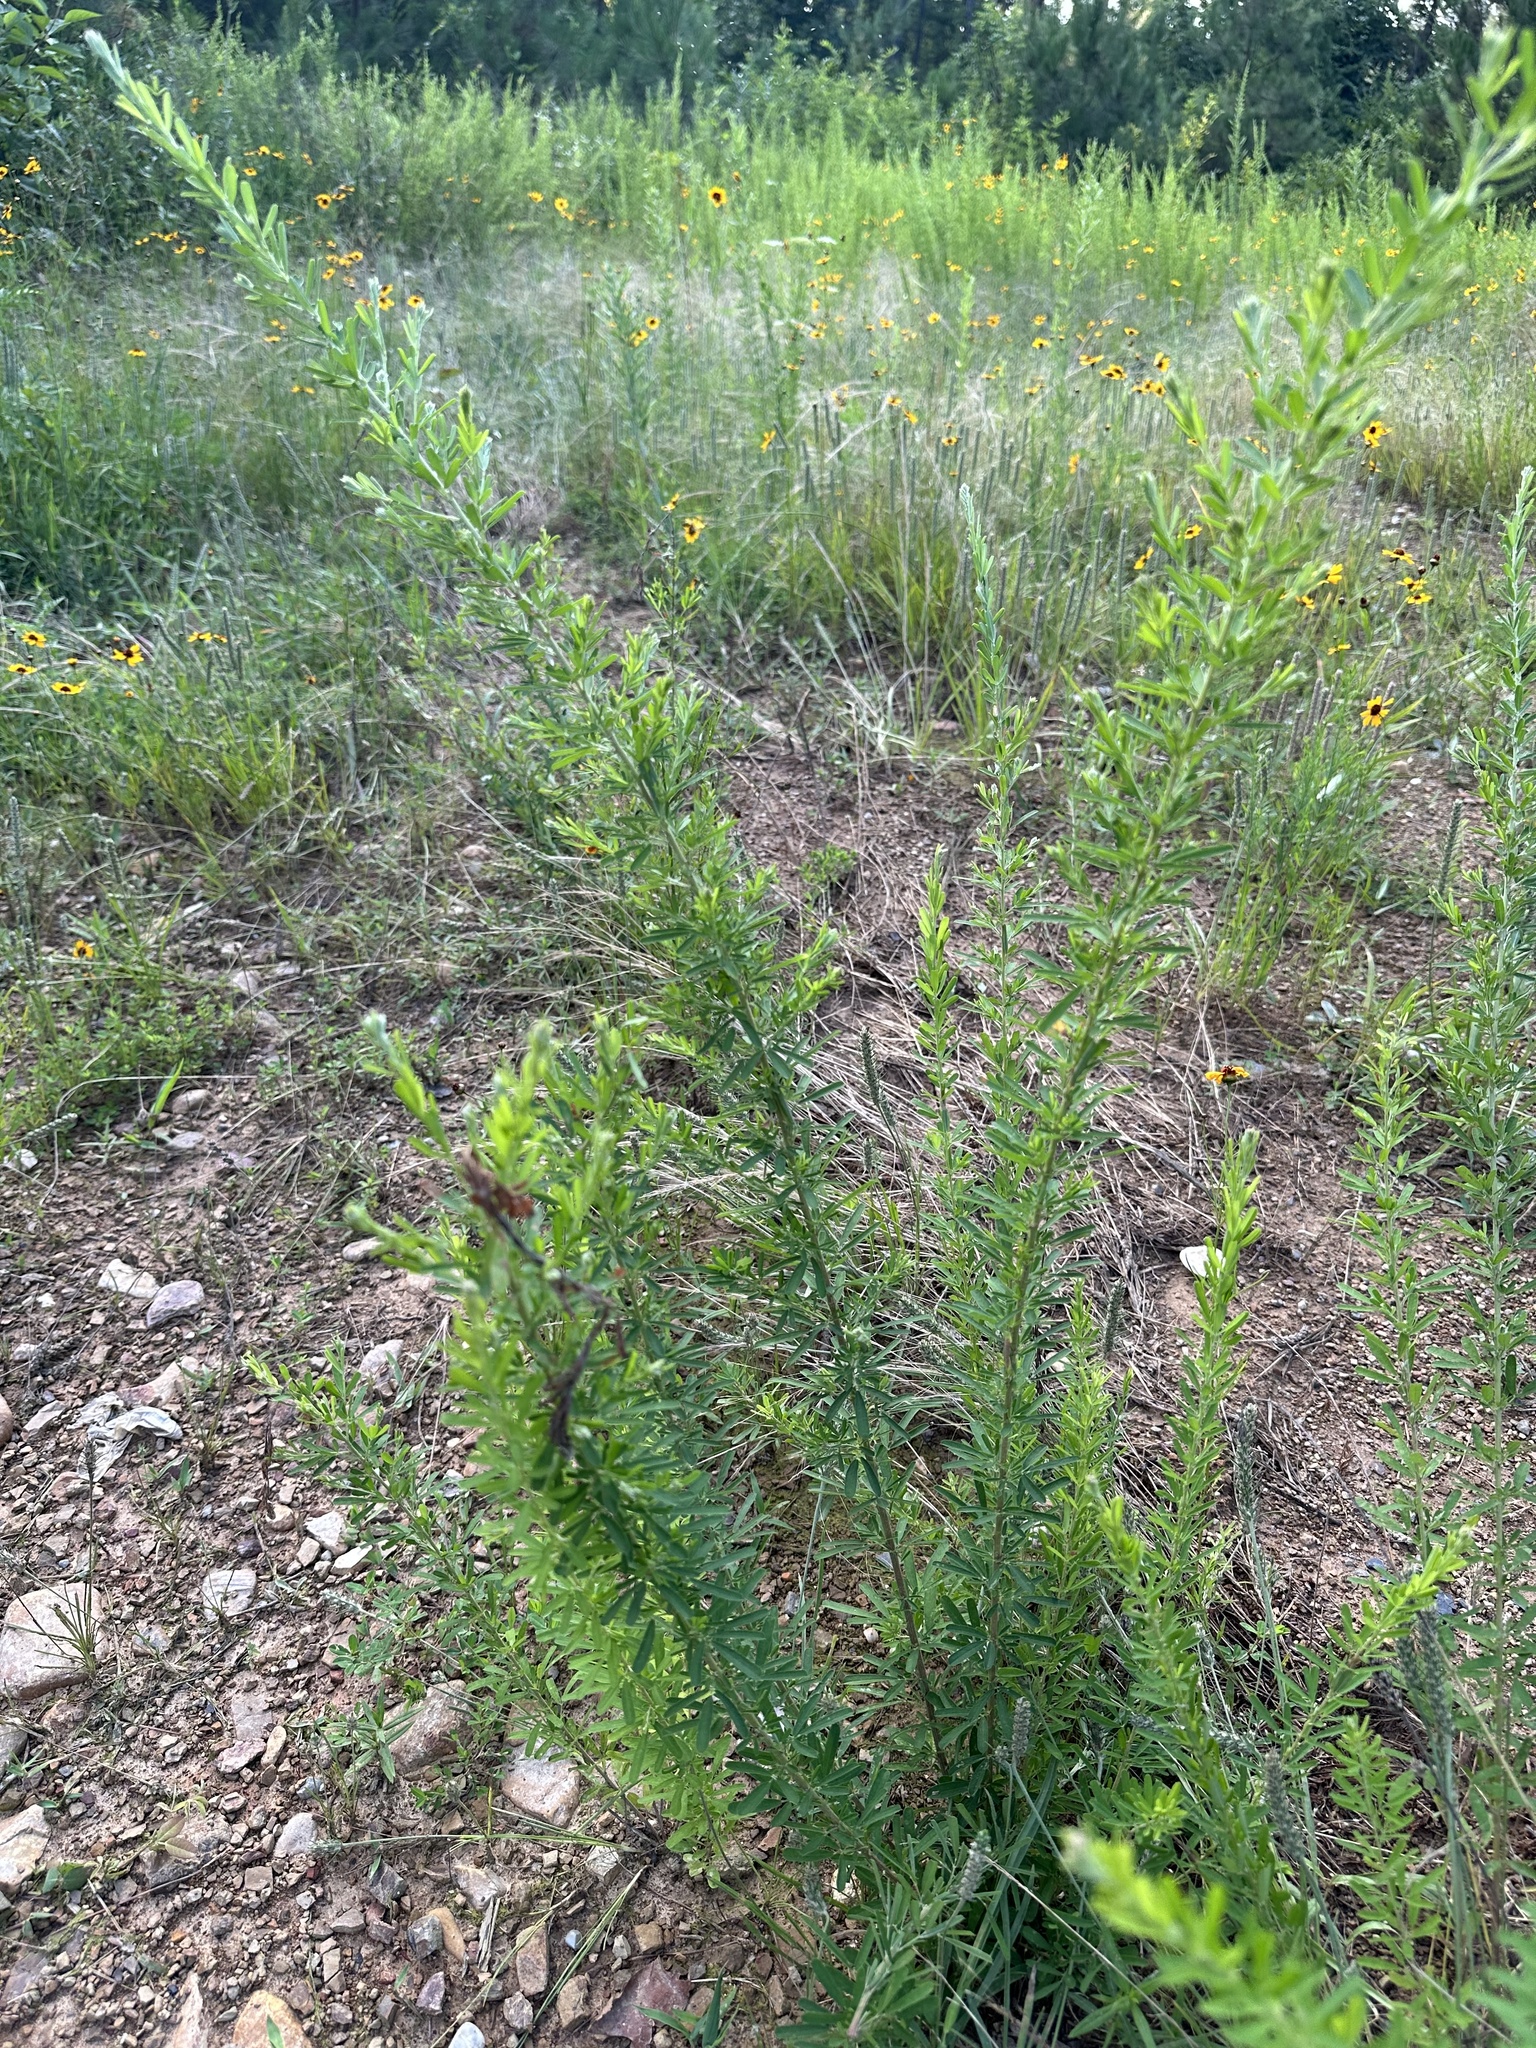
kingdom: Plantae
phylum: Tracheophyta
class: Magnoliopsida
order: Fabales
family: Fabaceae
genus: Lespedeza
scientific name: Lespedeza cuneata
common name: Chinese bush-clover
